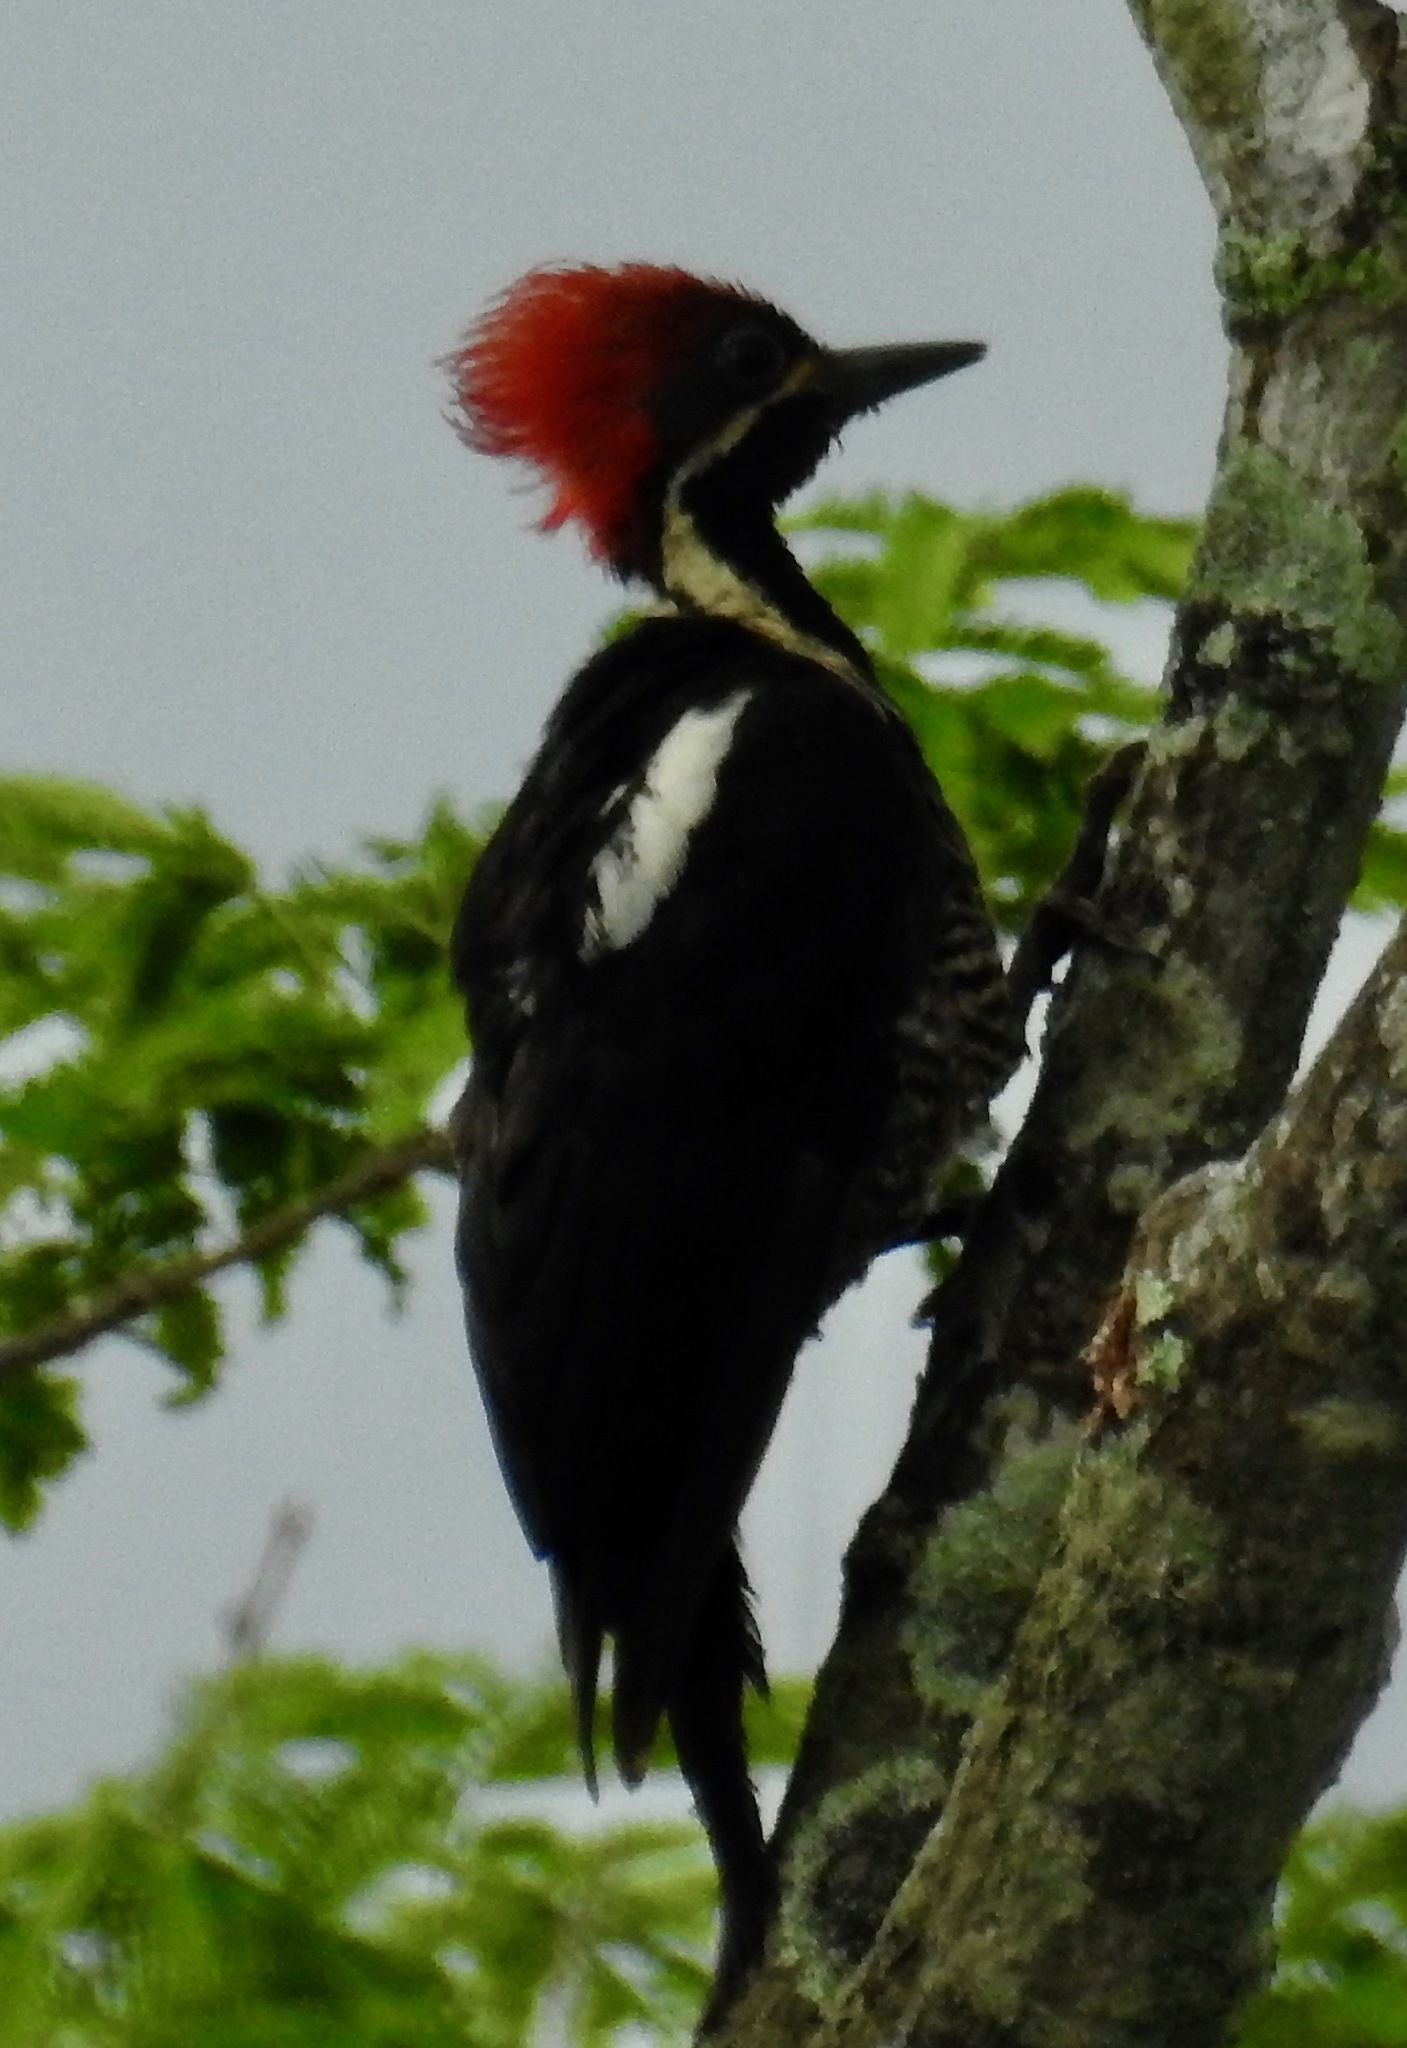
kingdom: Animalia
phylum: Chordata
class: Aves
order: Piciformes
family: Picidae
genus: Dryocopus
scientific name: Dryocopus lineatus
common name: Lineated woodpecker
